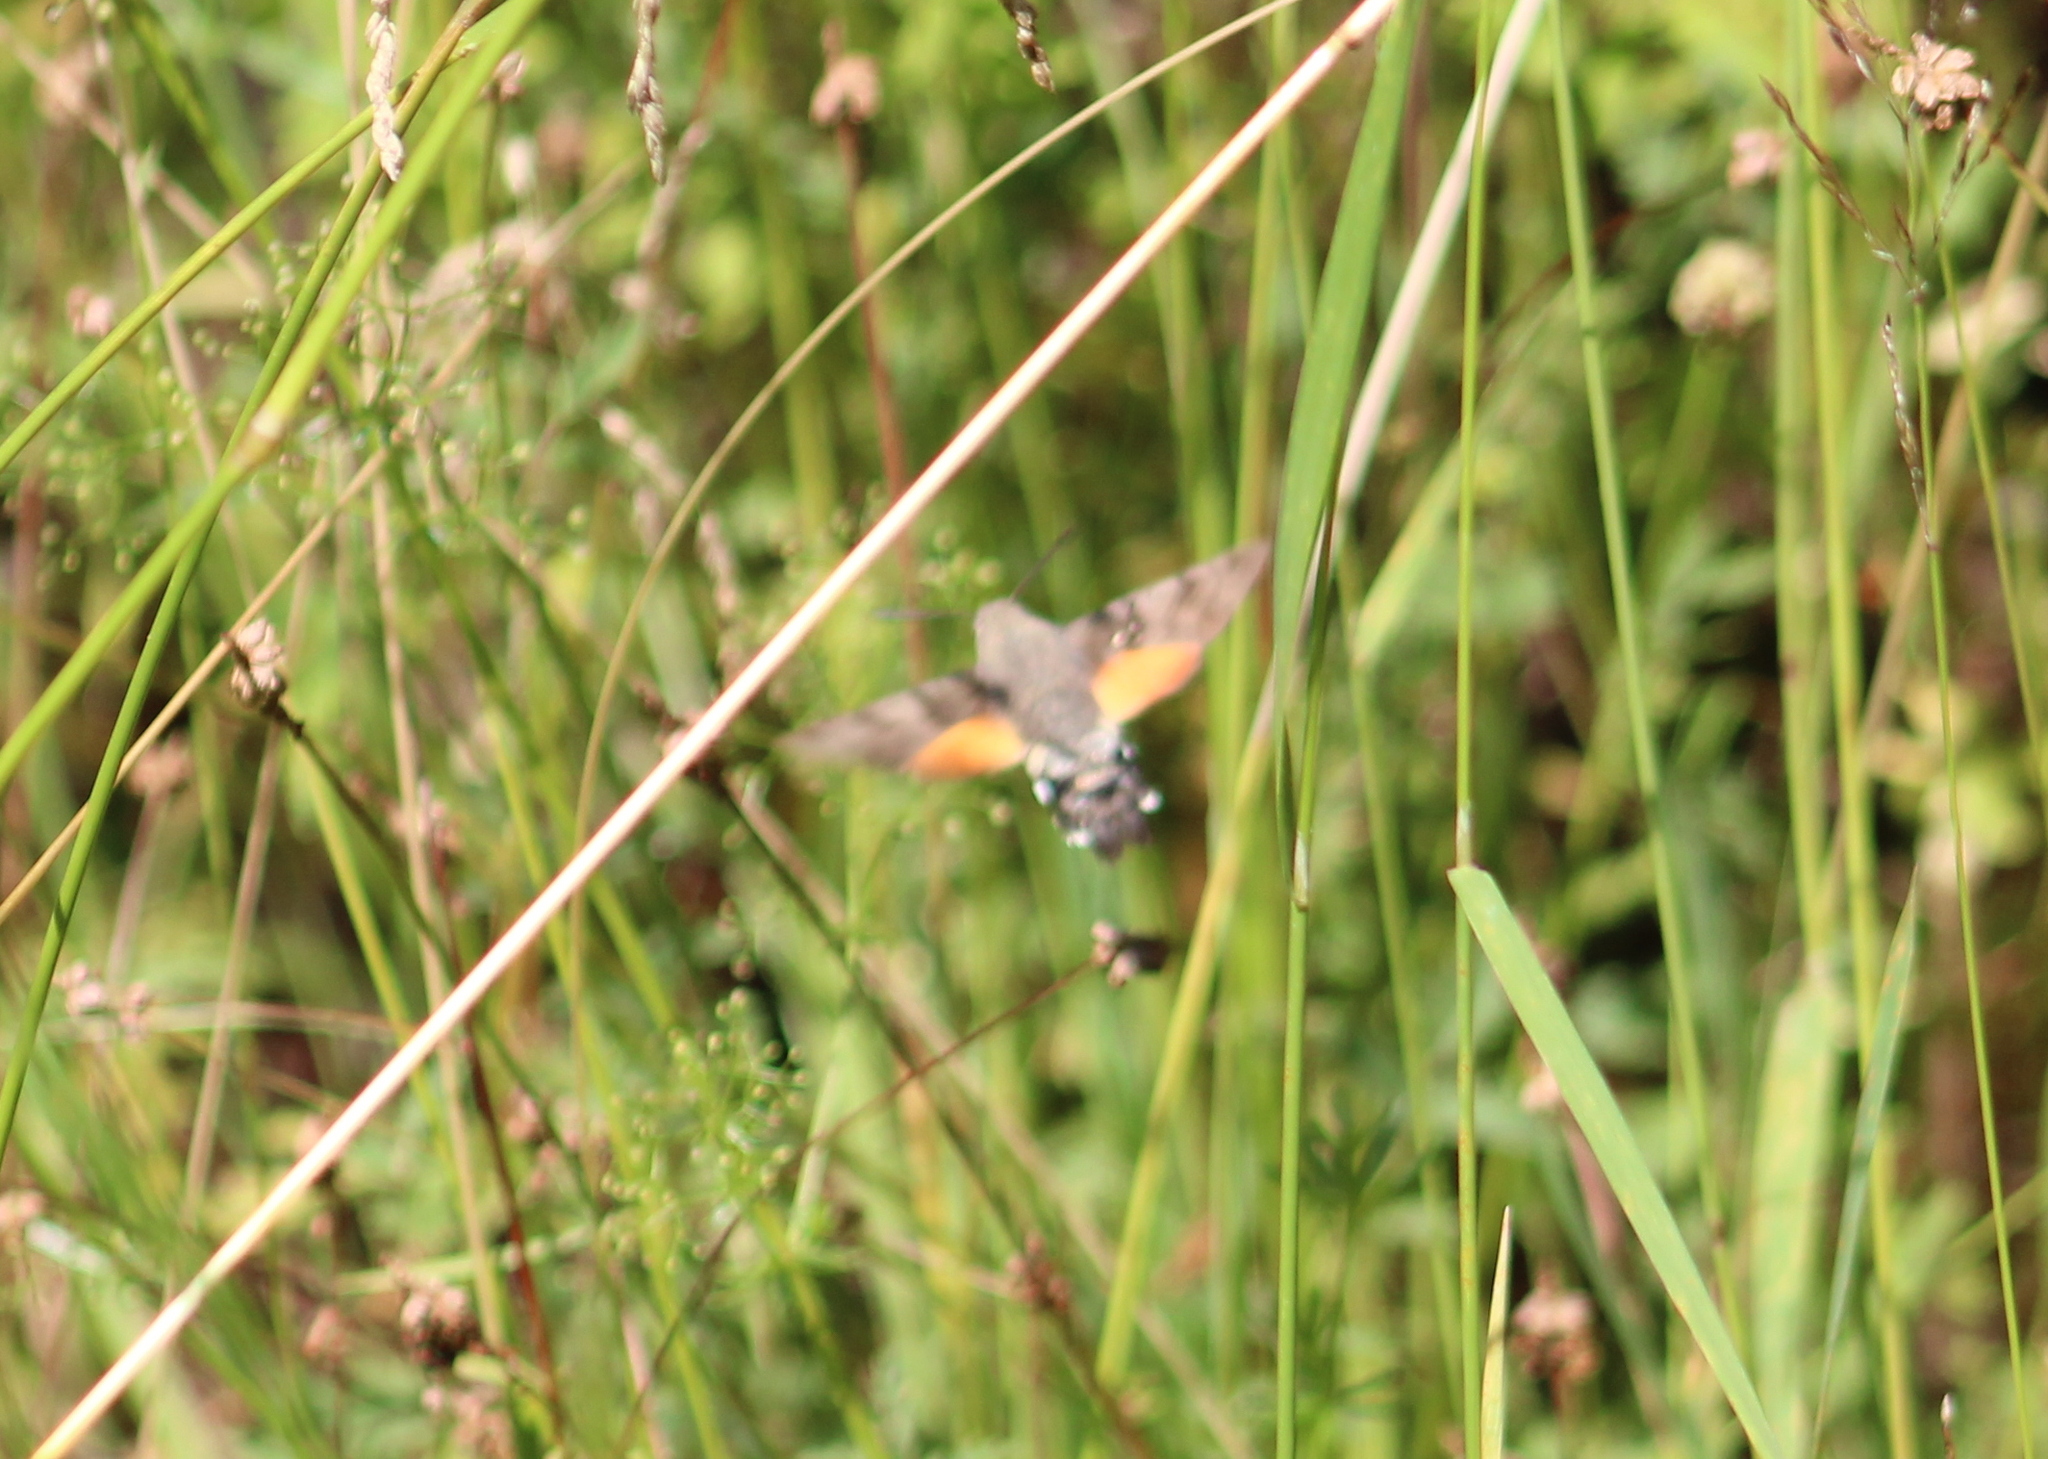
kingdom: Animalia
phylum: Arthropoda
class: Insecta
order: Lepidoptera
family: Sphingidae
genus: Macroglossum
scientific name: Macroglossum stellatarum
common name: Humming-bird hawk-moth
